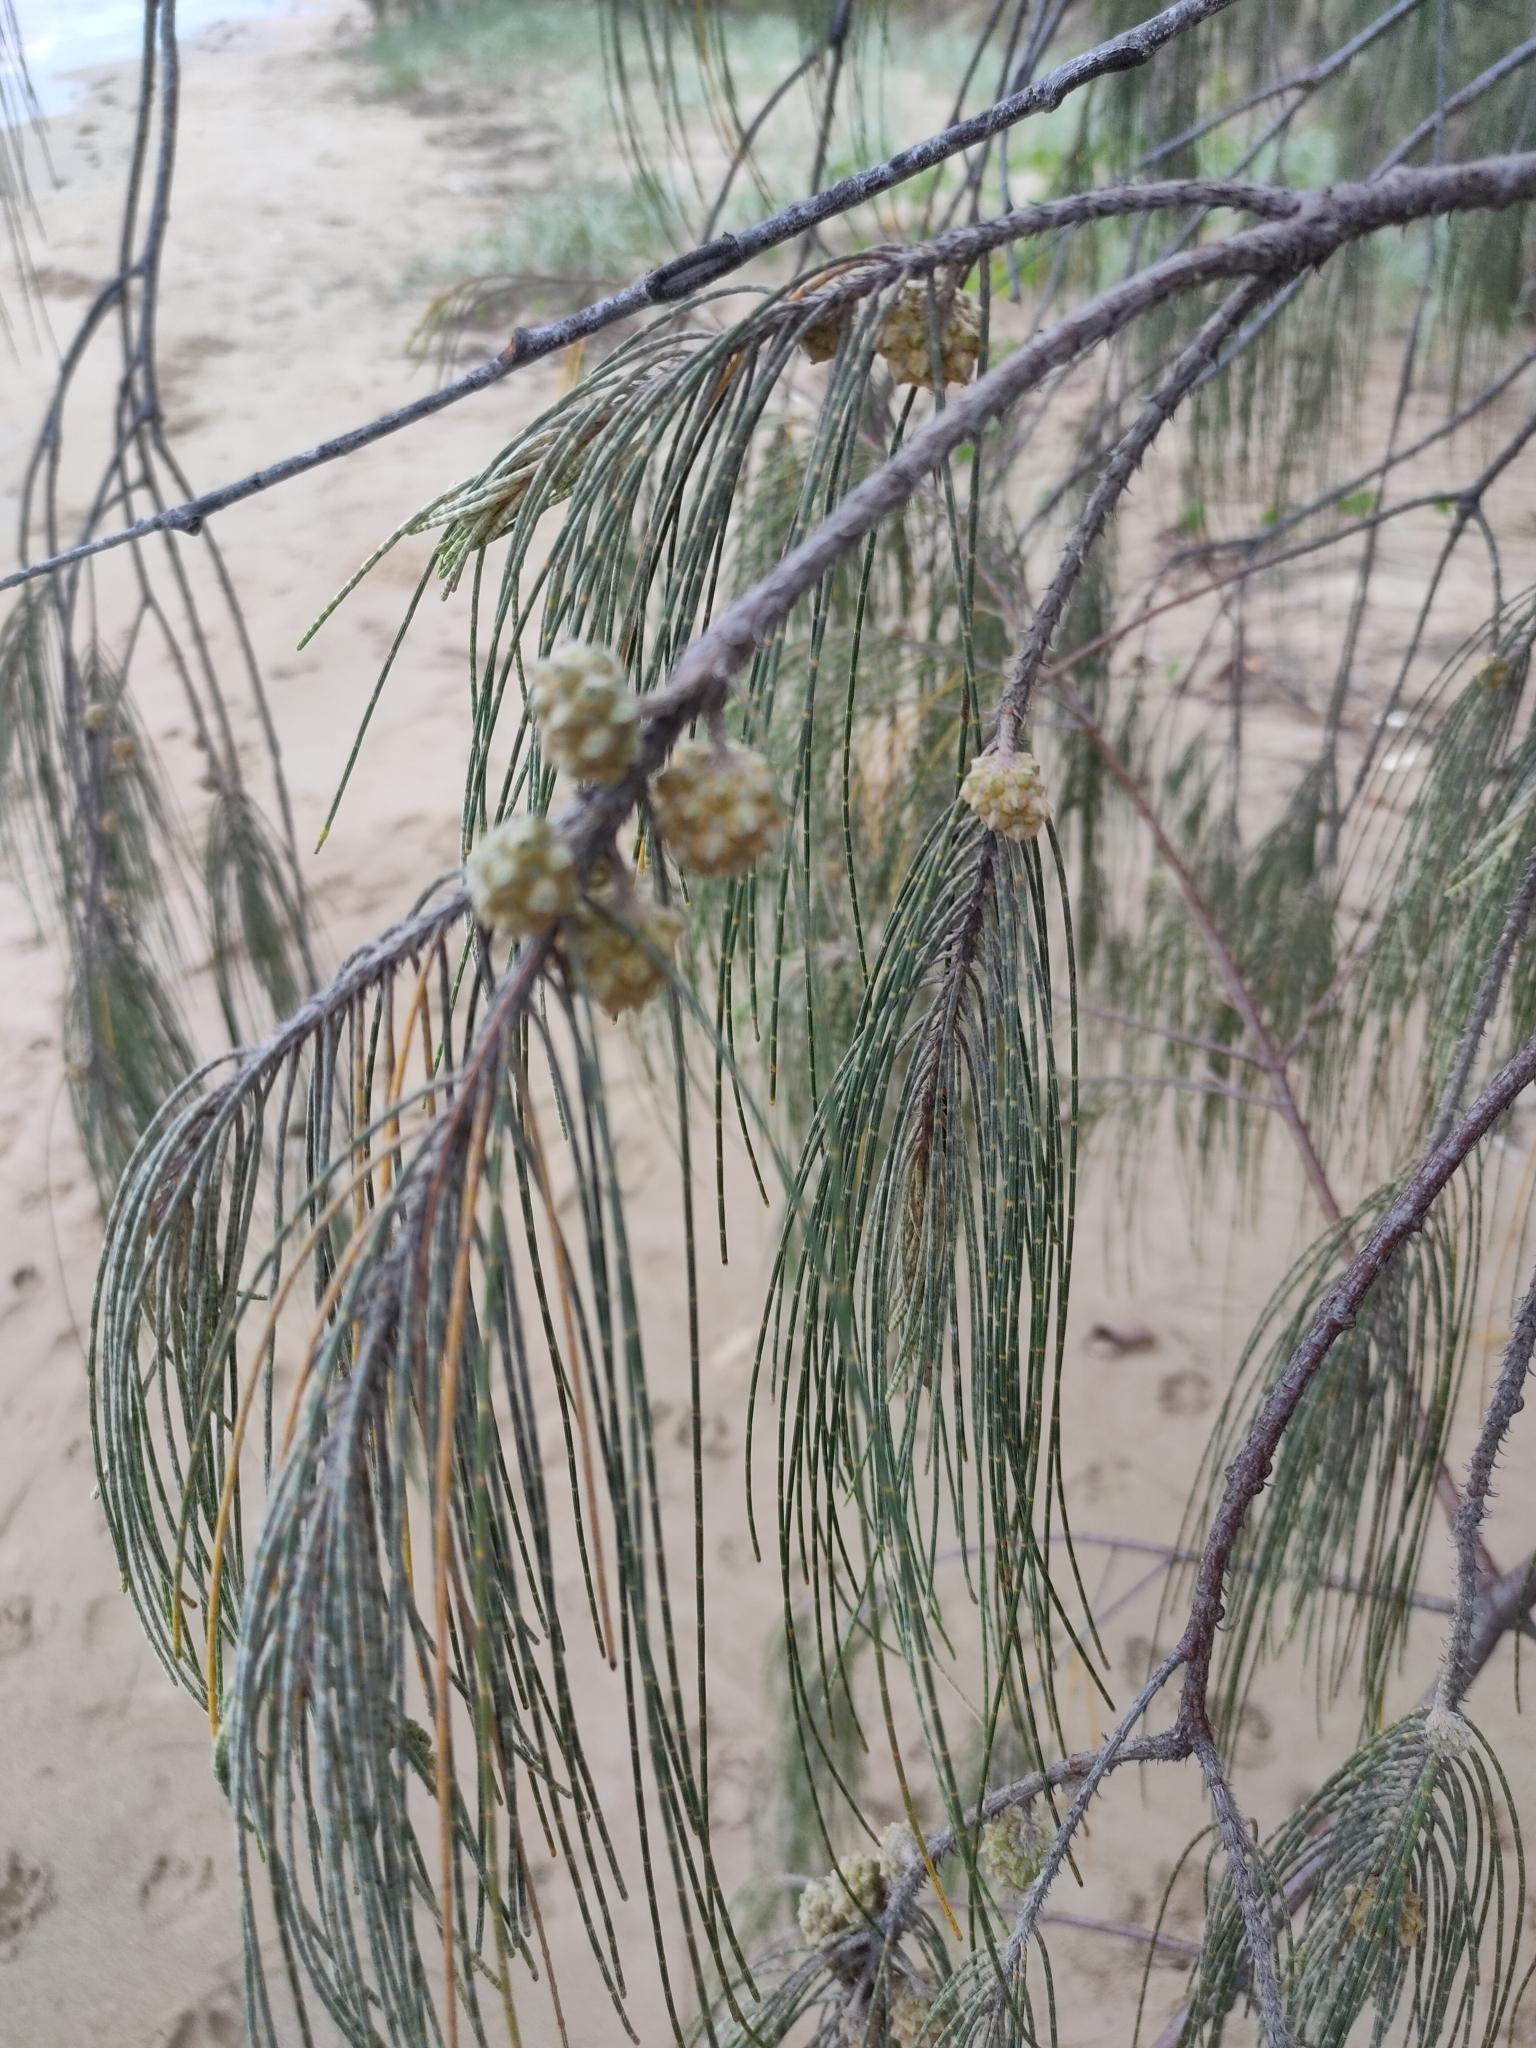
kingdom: Plantae
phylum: Tracheophyta
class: Magnoliopsida
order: Fagales
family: Casuarinaceae
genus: Casuarina
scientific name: Casuarina equisetifolia
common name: Beach sheoak
